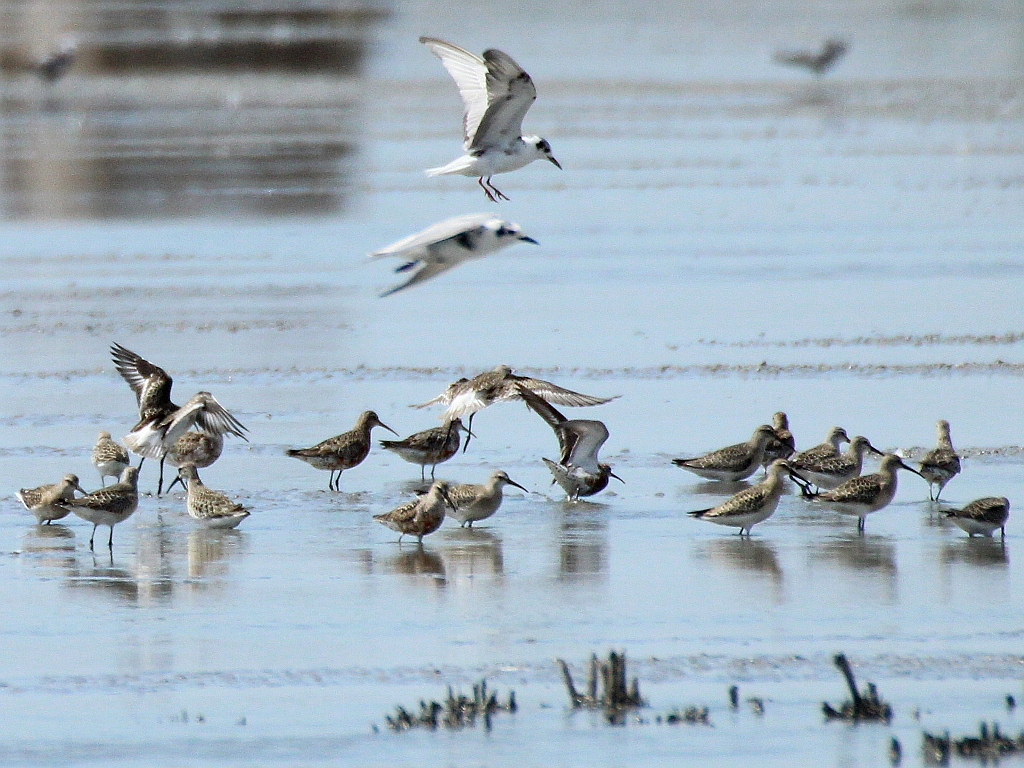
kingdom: Animalia
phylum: Chordata
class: Aves
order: Charadriiformes
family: Scolopacidae
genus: Calidris
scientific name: Calidris ferruginea
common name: Curlew sandpiper
